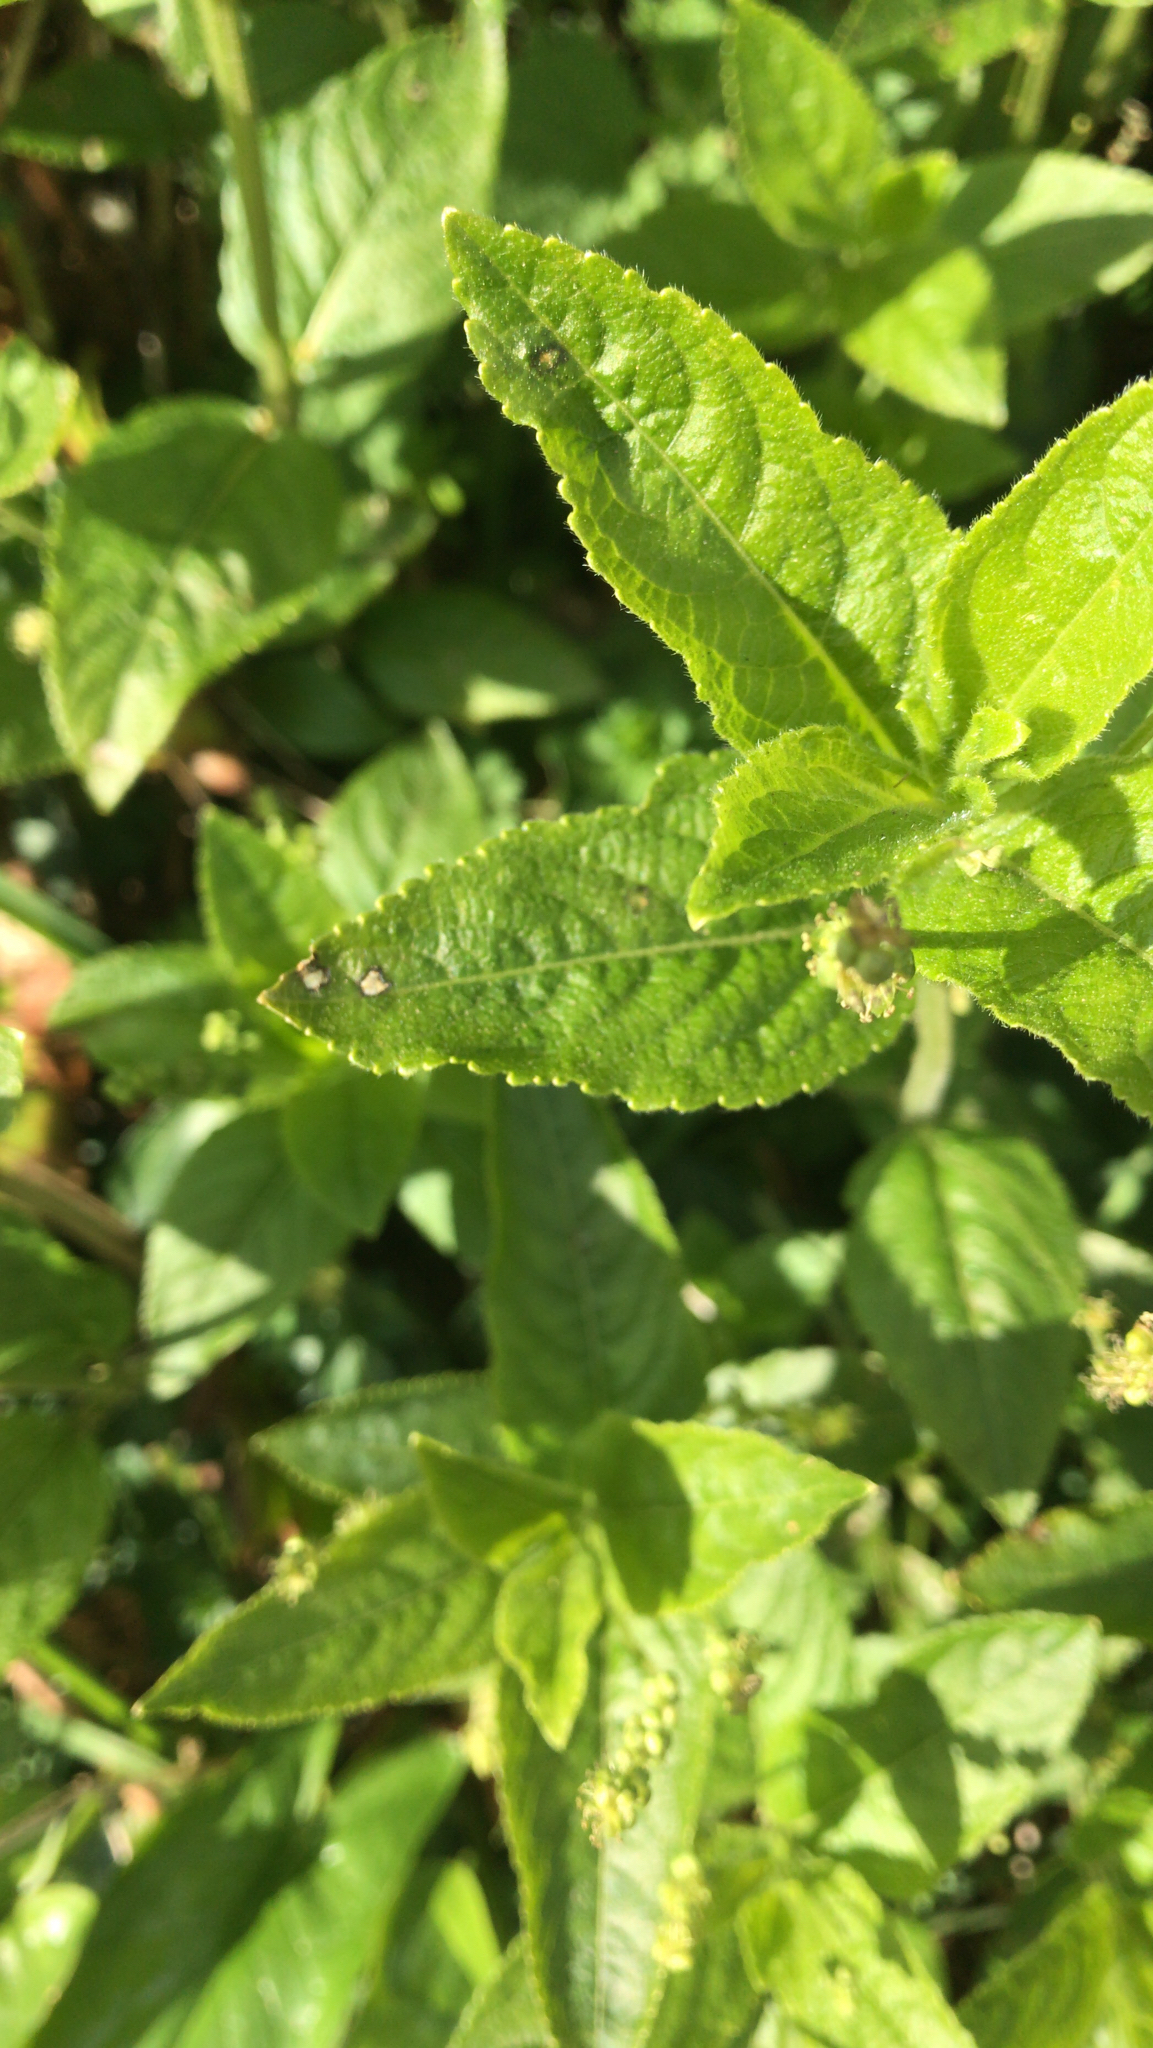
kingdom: Plantae
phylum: Tracheophyta
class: Magnoliopsida
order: Malpighiales
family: Euphorbiaceae
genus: Mercurialis
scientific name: Mercurialis perennis
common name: Dog mercury
